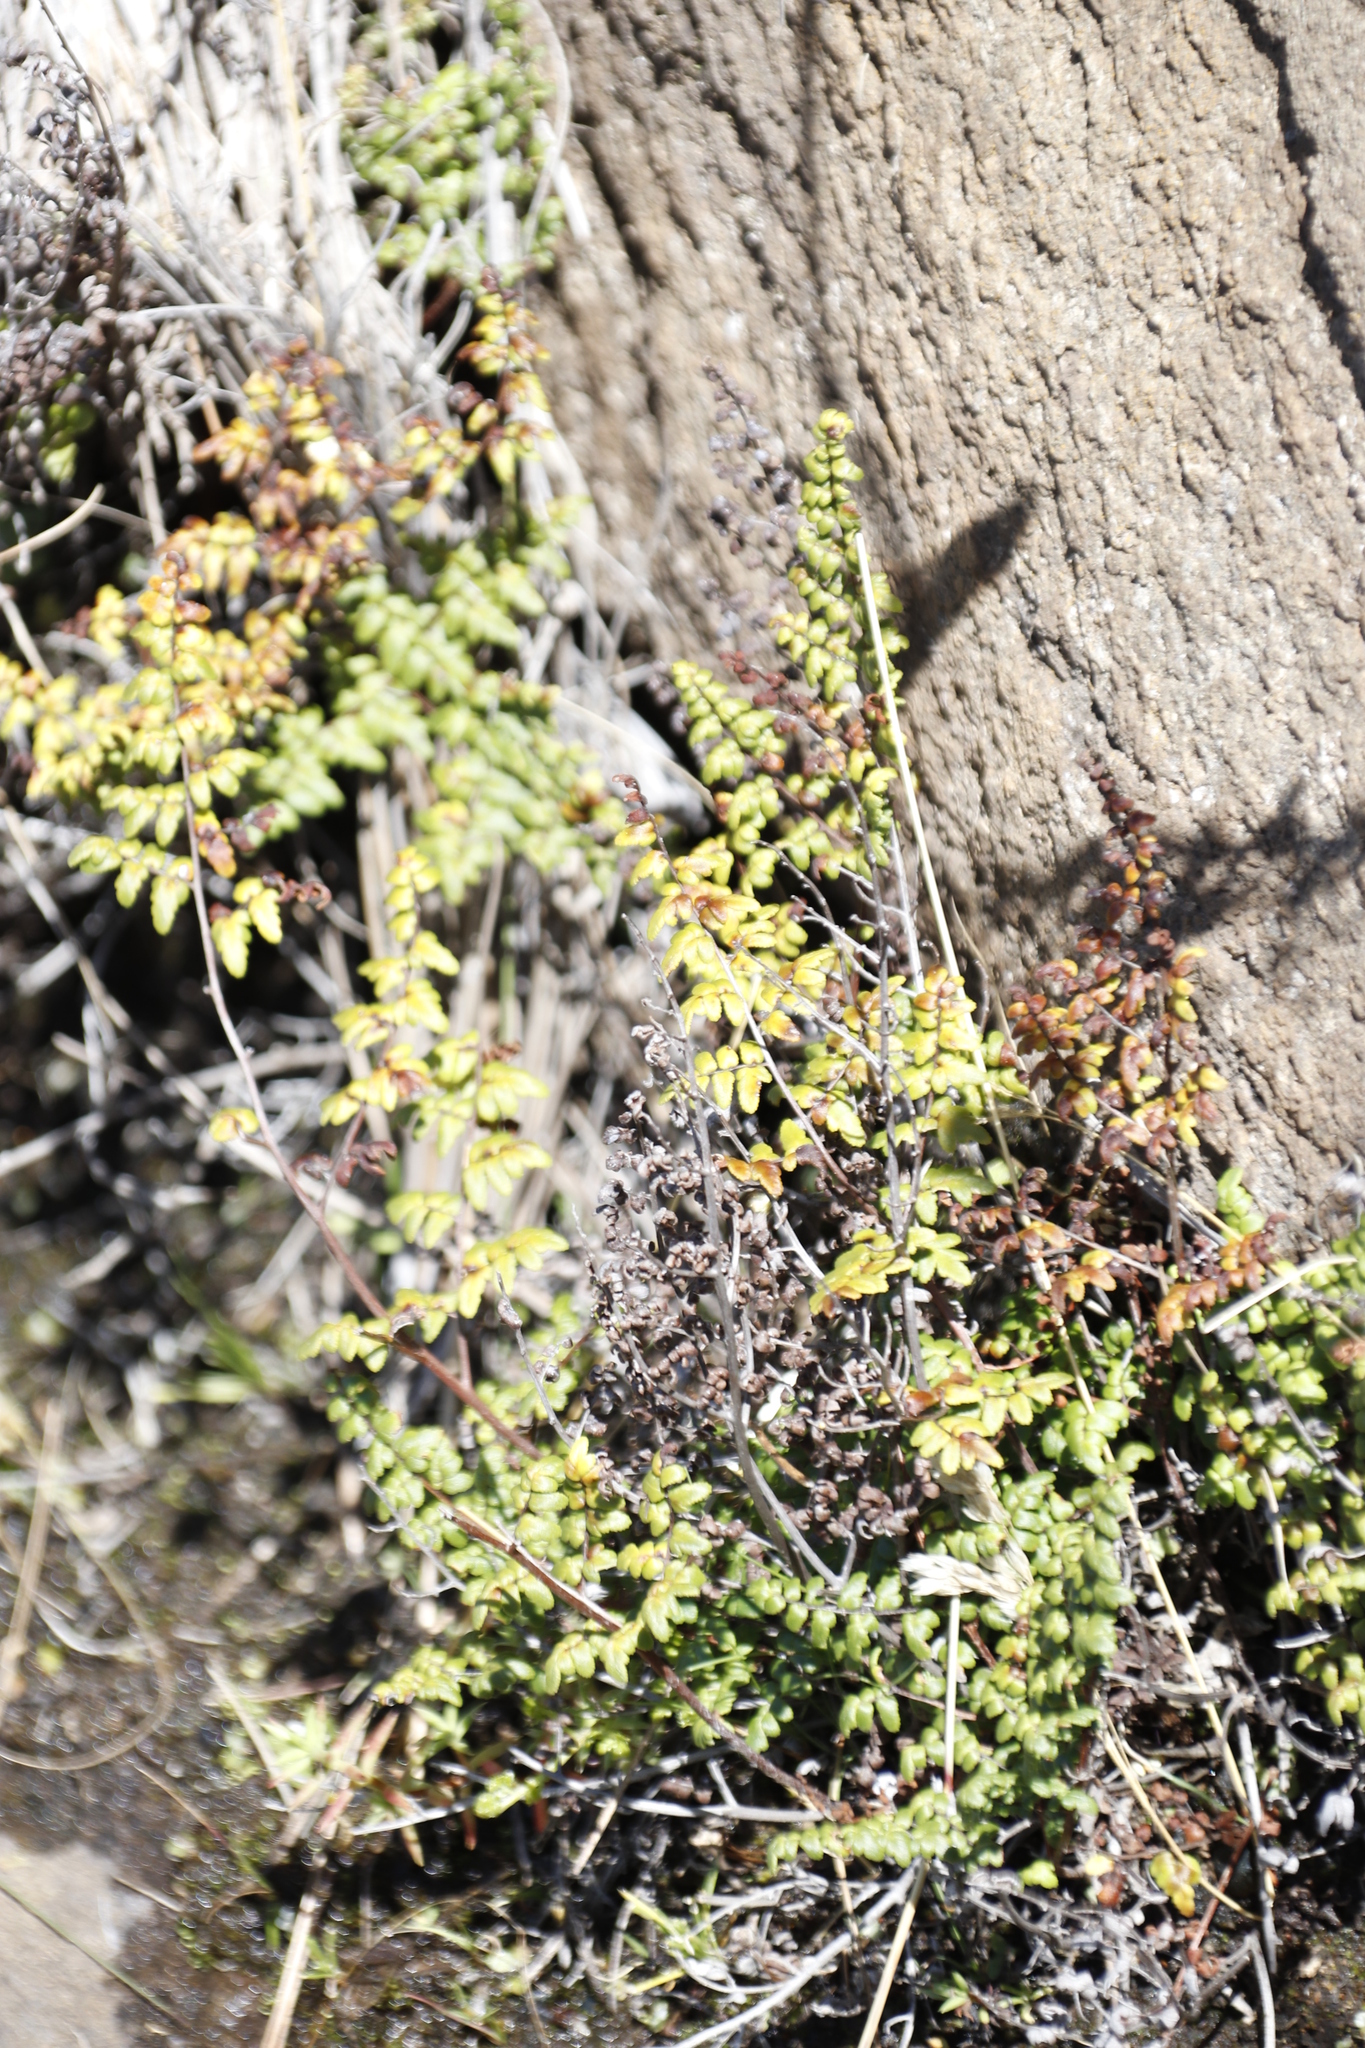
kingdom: Plantae
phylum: Tracheophyta
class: Polypodiopsida
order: Polypodiales
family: Pteridaceae
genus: Cheilanthes
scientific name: Cheilanthes quadripinnata
